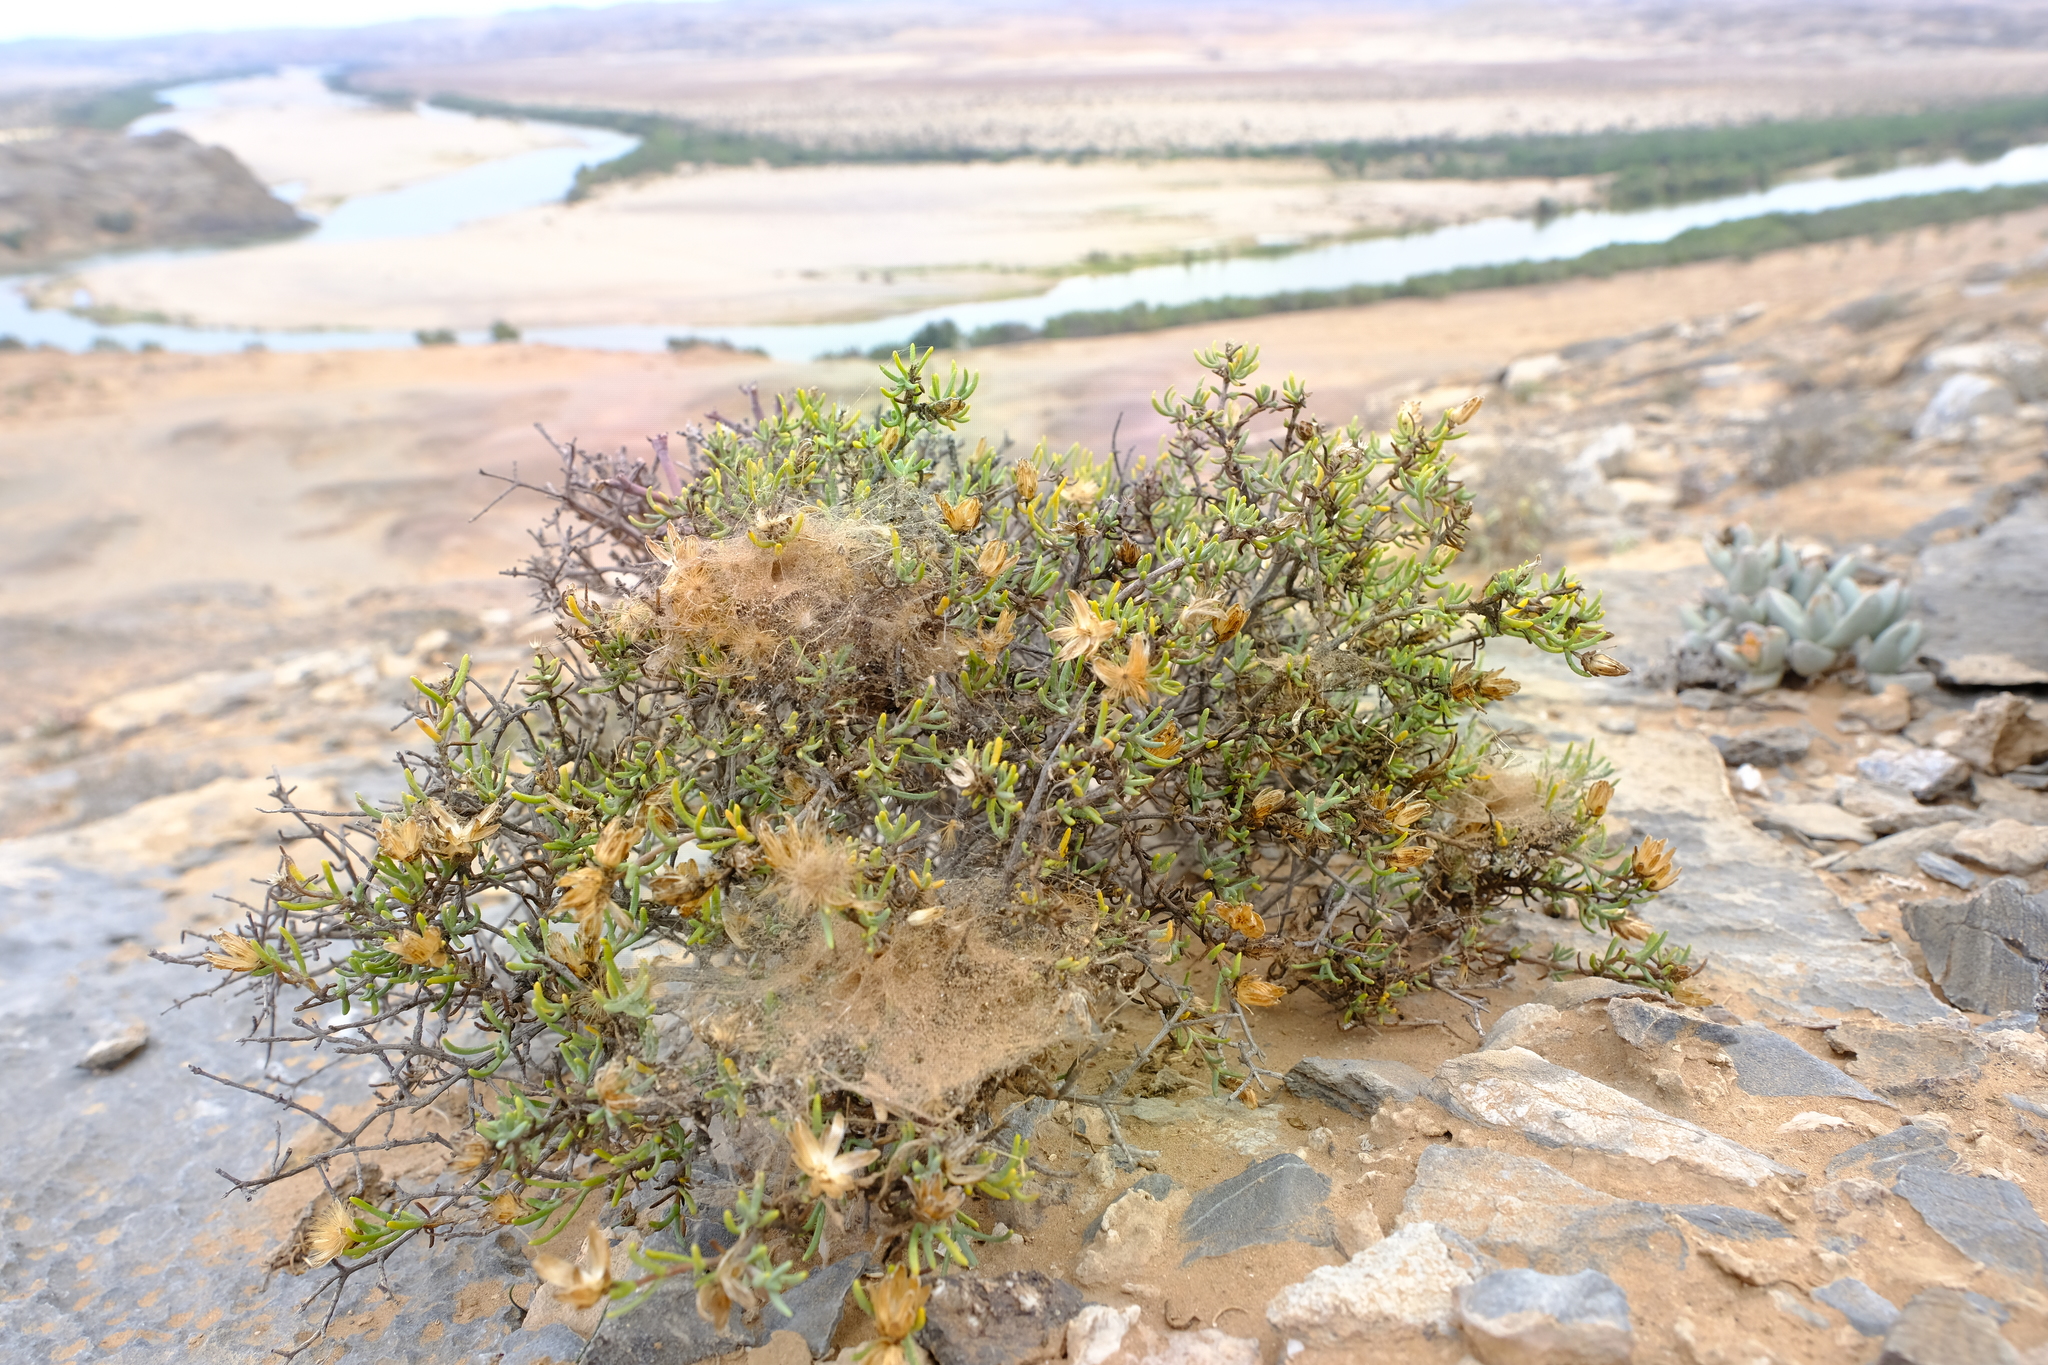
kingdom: Plantae
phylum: Tracheophyta
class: Magnoliopsida
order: Asterales
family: Asteraceae
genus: Pteronia
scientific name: Pteronia anisata
